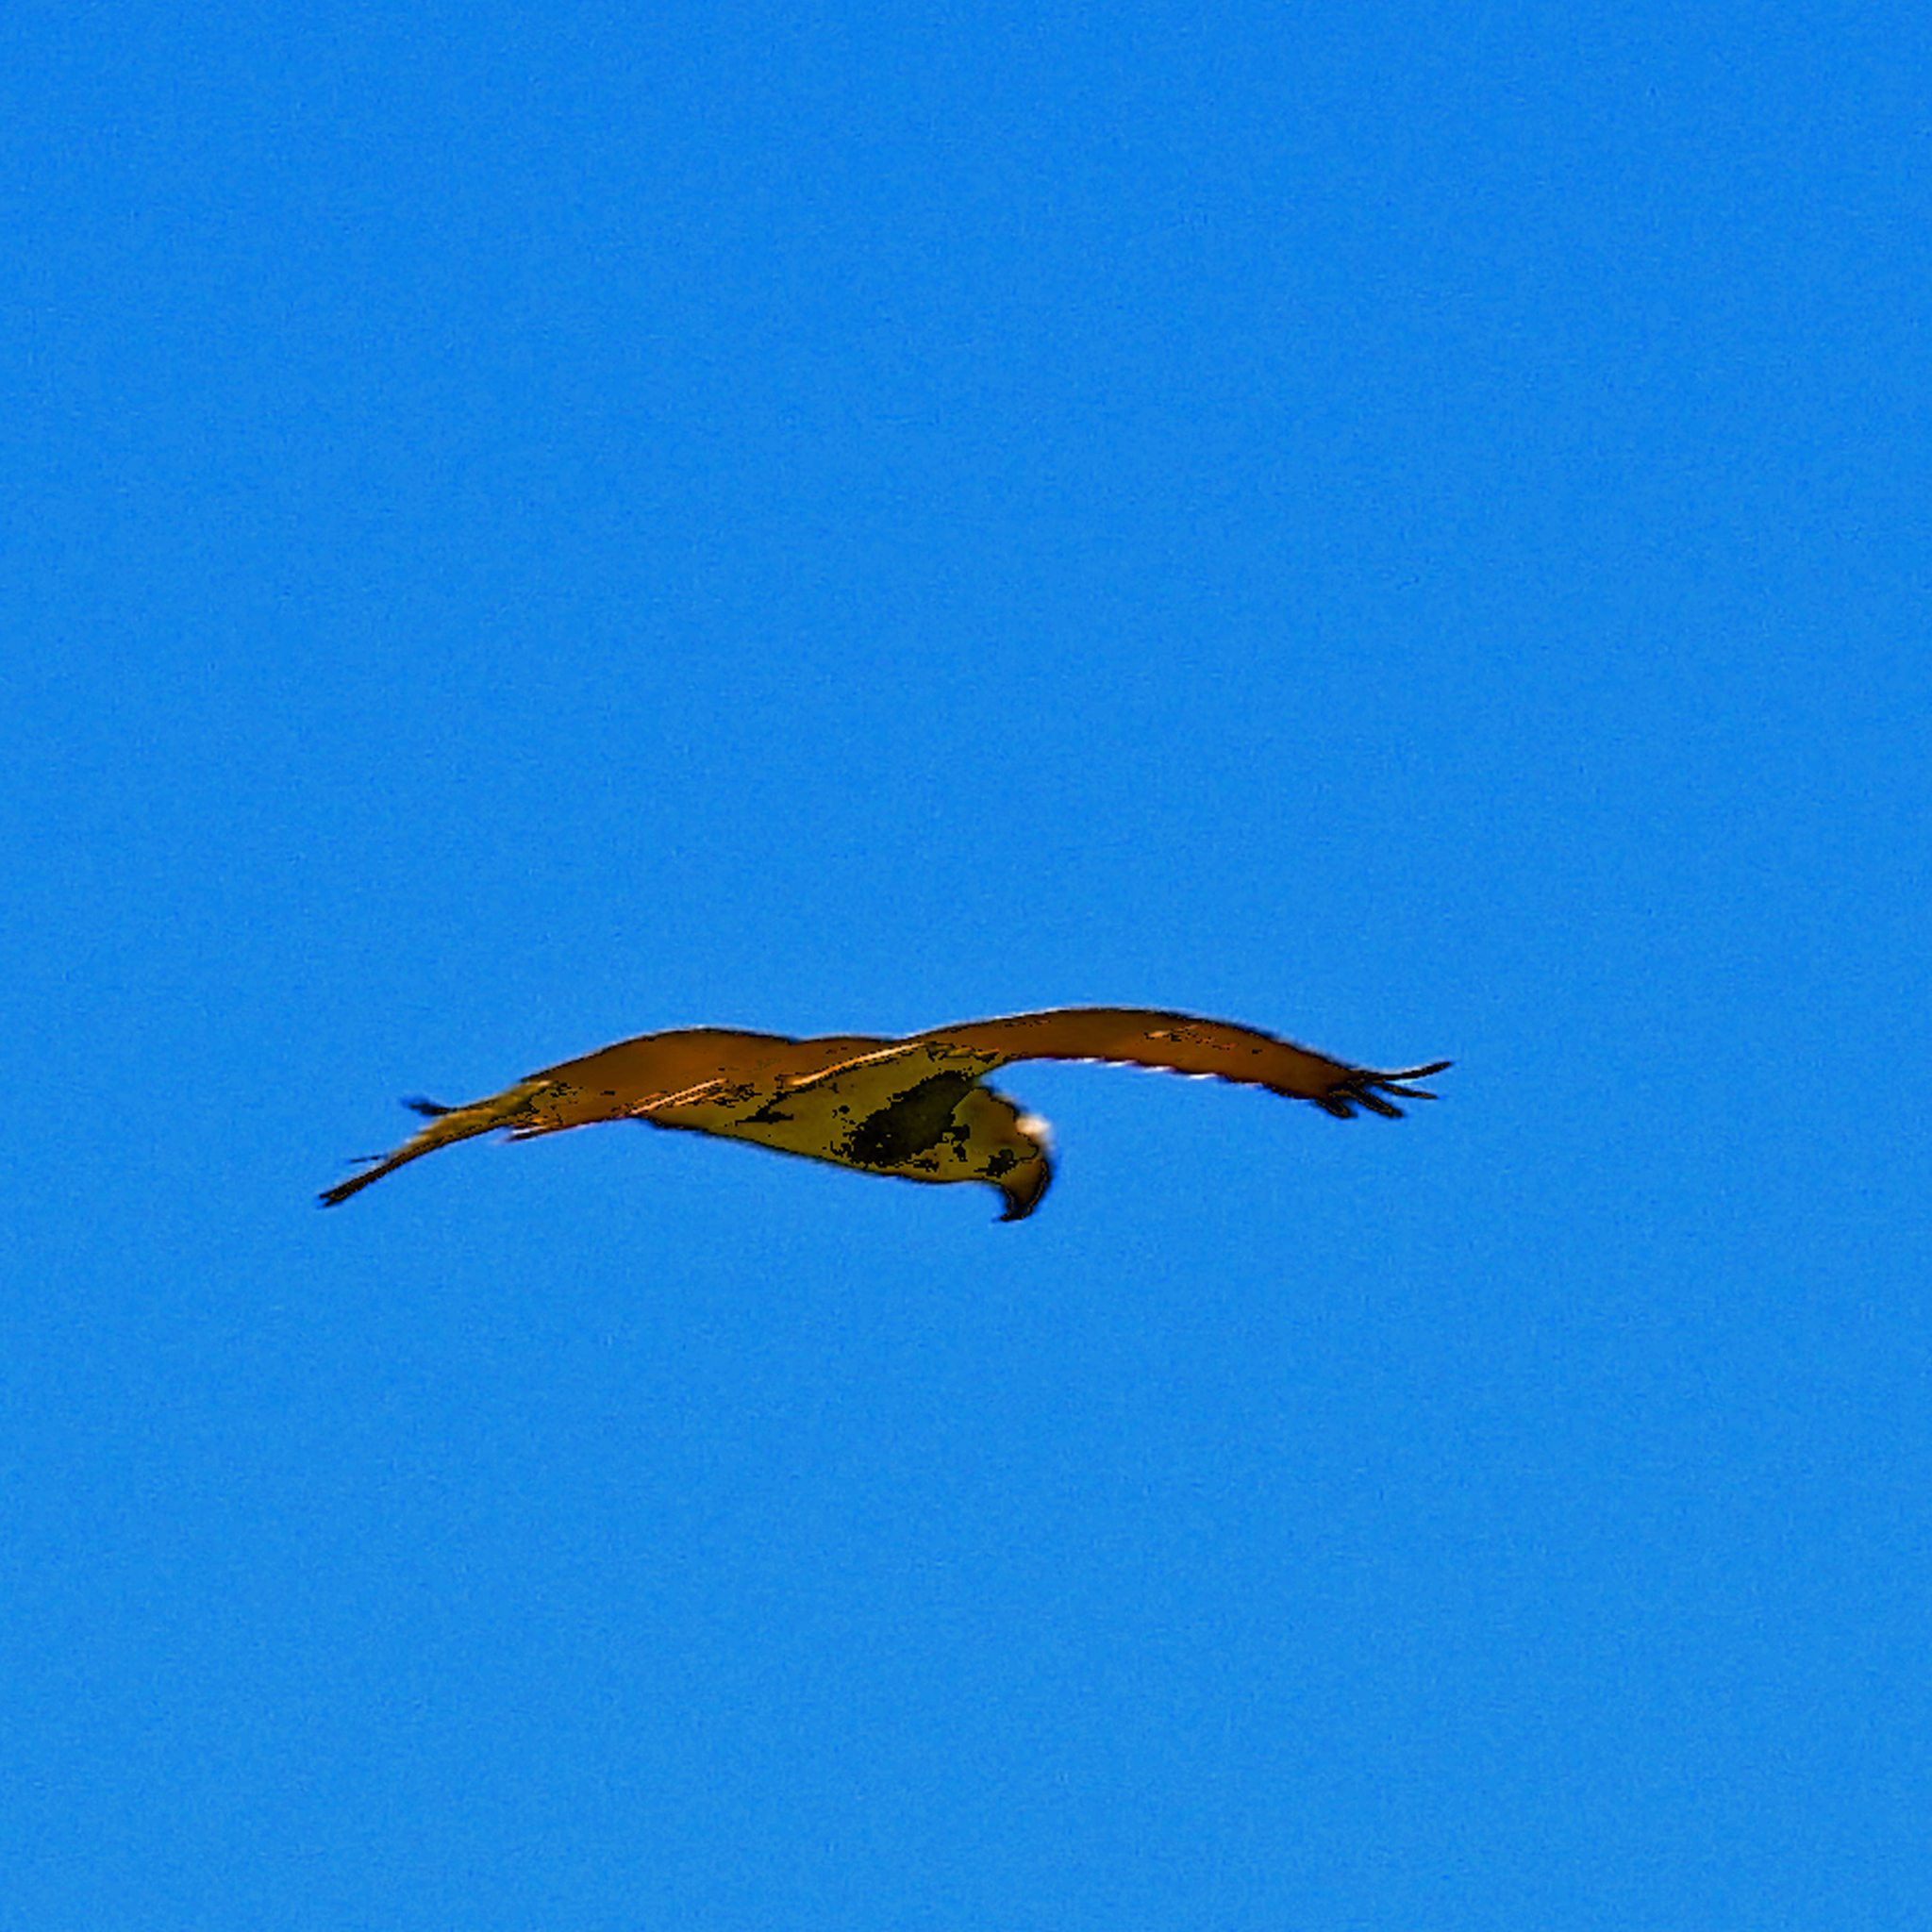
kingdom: Animalia
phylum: Chordata
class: Aves
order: Accipitriformes
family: Pandionidae
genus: Pandion
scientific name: Pandion haliaetus
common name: Osprey
